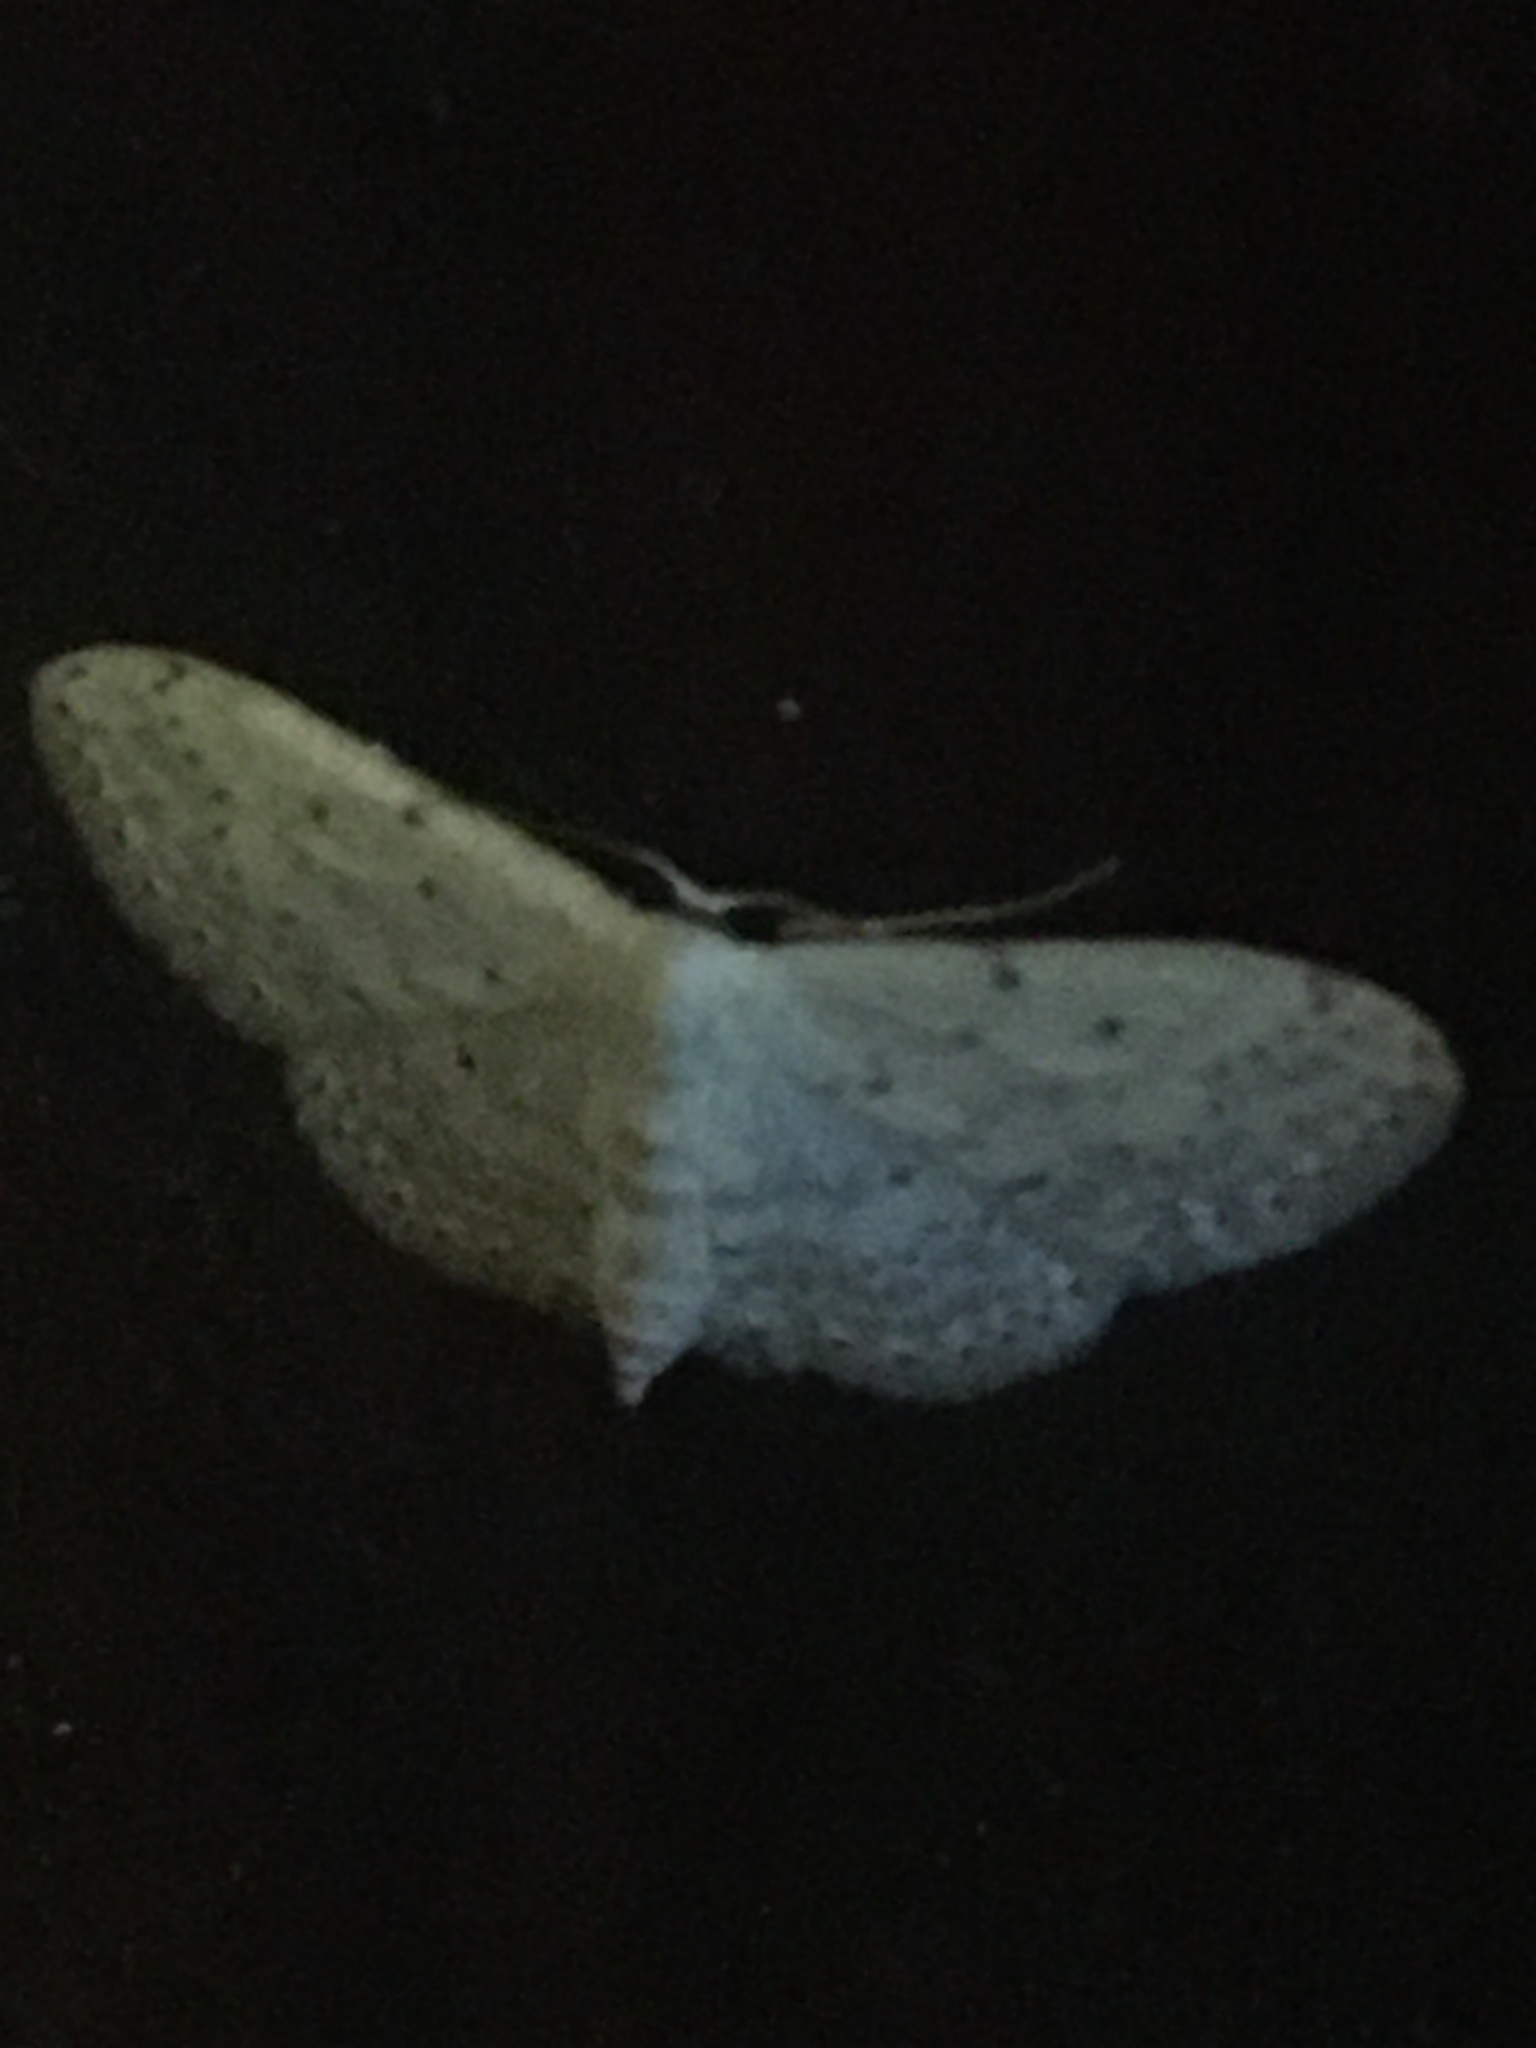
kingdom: Animalia
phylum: Arthropoda
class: Insecta
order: Lepidoptera
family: Geometridae
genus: Idaea
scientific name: Idaea seriata
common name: Small dusty wave
